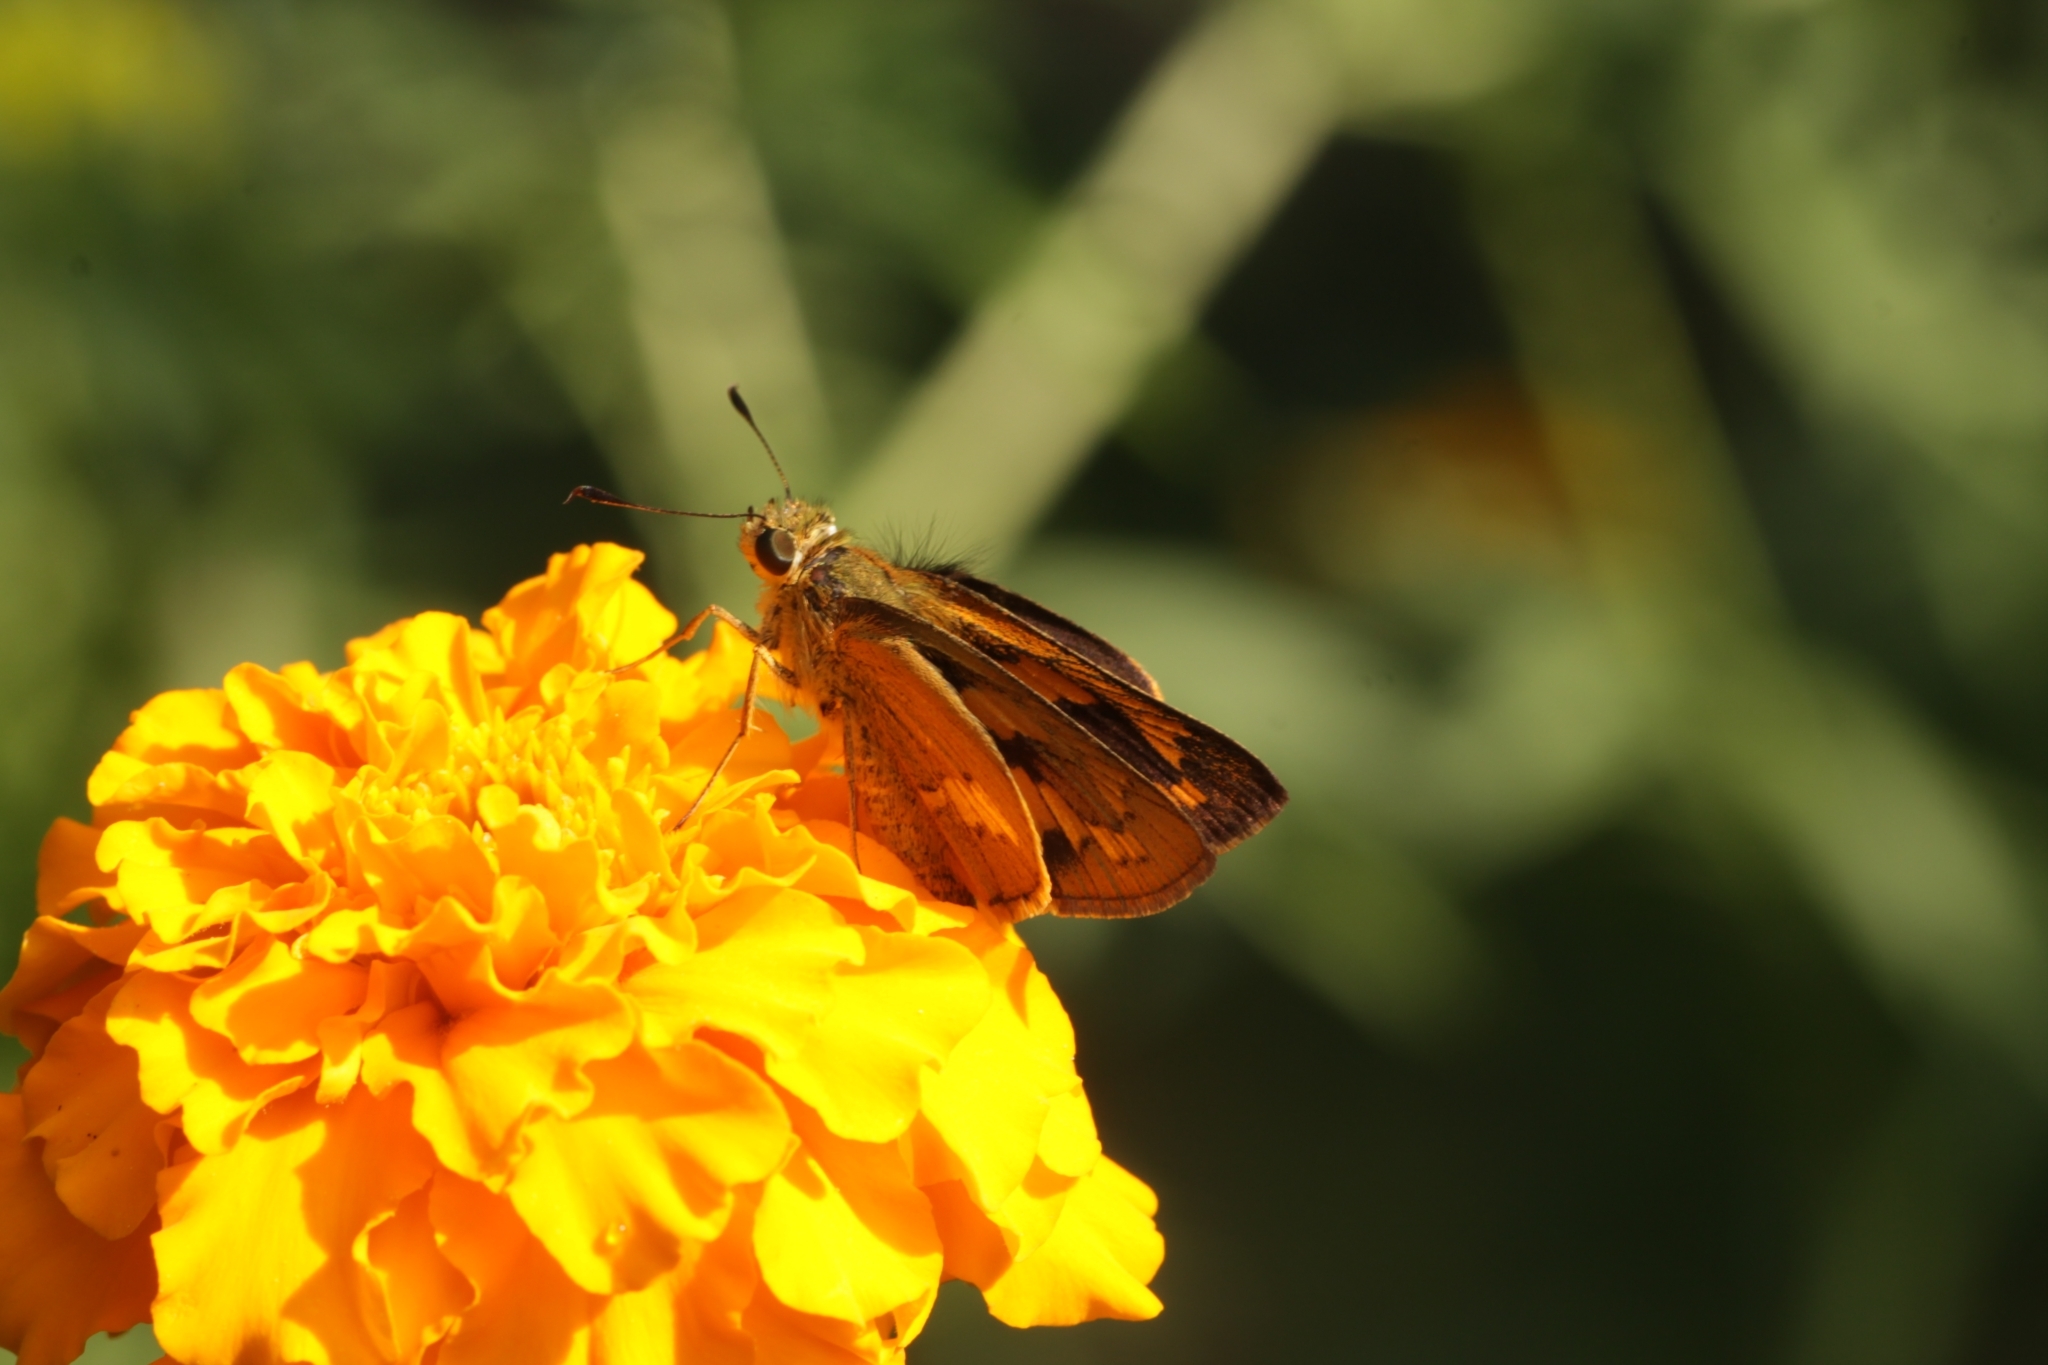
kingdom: Animalia
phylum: Arthropoda
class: Insecta
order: Lepidoptera
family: Hesperiidae
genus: Telicota
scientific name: Telicota colon
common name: Pale palm dart
